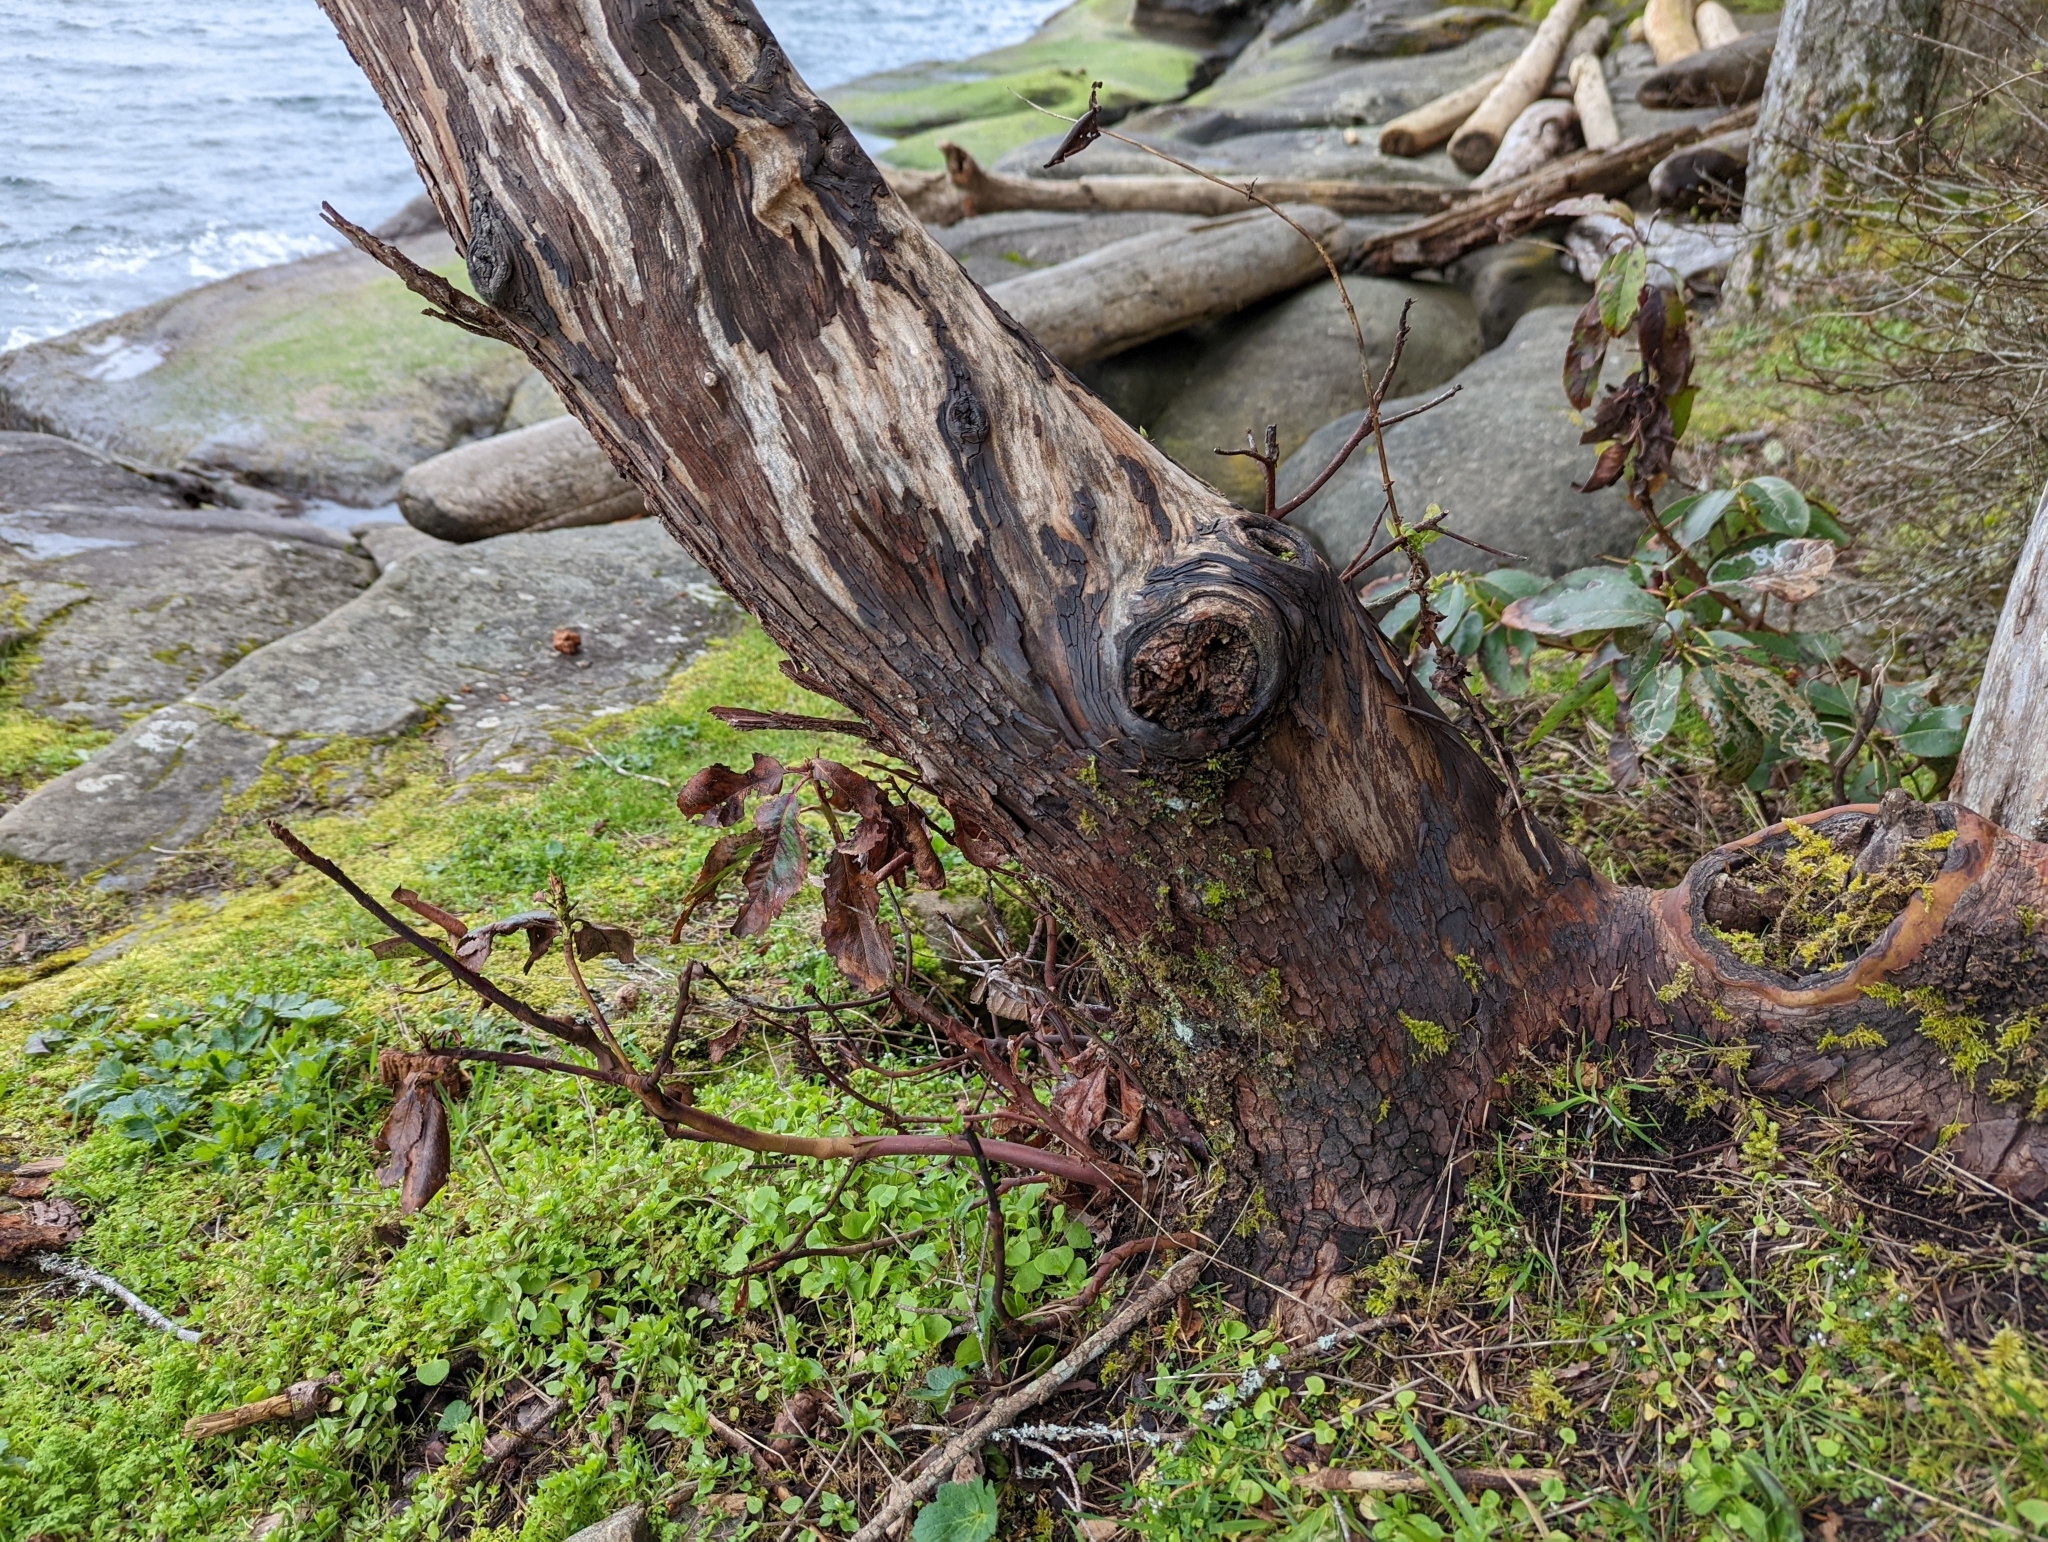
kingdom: Fungi
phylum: Ascomycota
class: Eurotiomycetes
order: Verrucariales
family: Verrucariaceae
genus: Normandina
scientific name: Normandina pulchella
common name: Elf ears lichen
